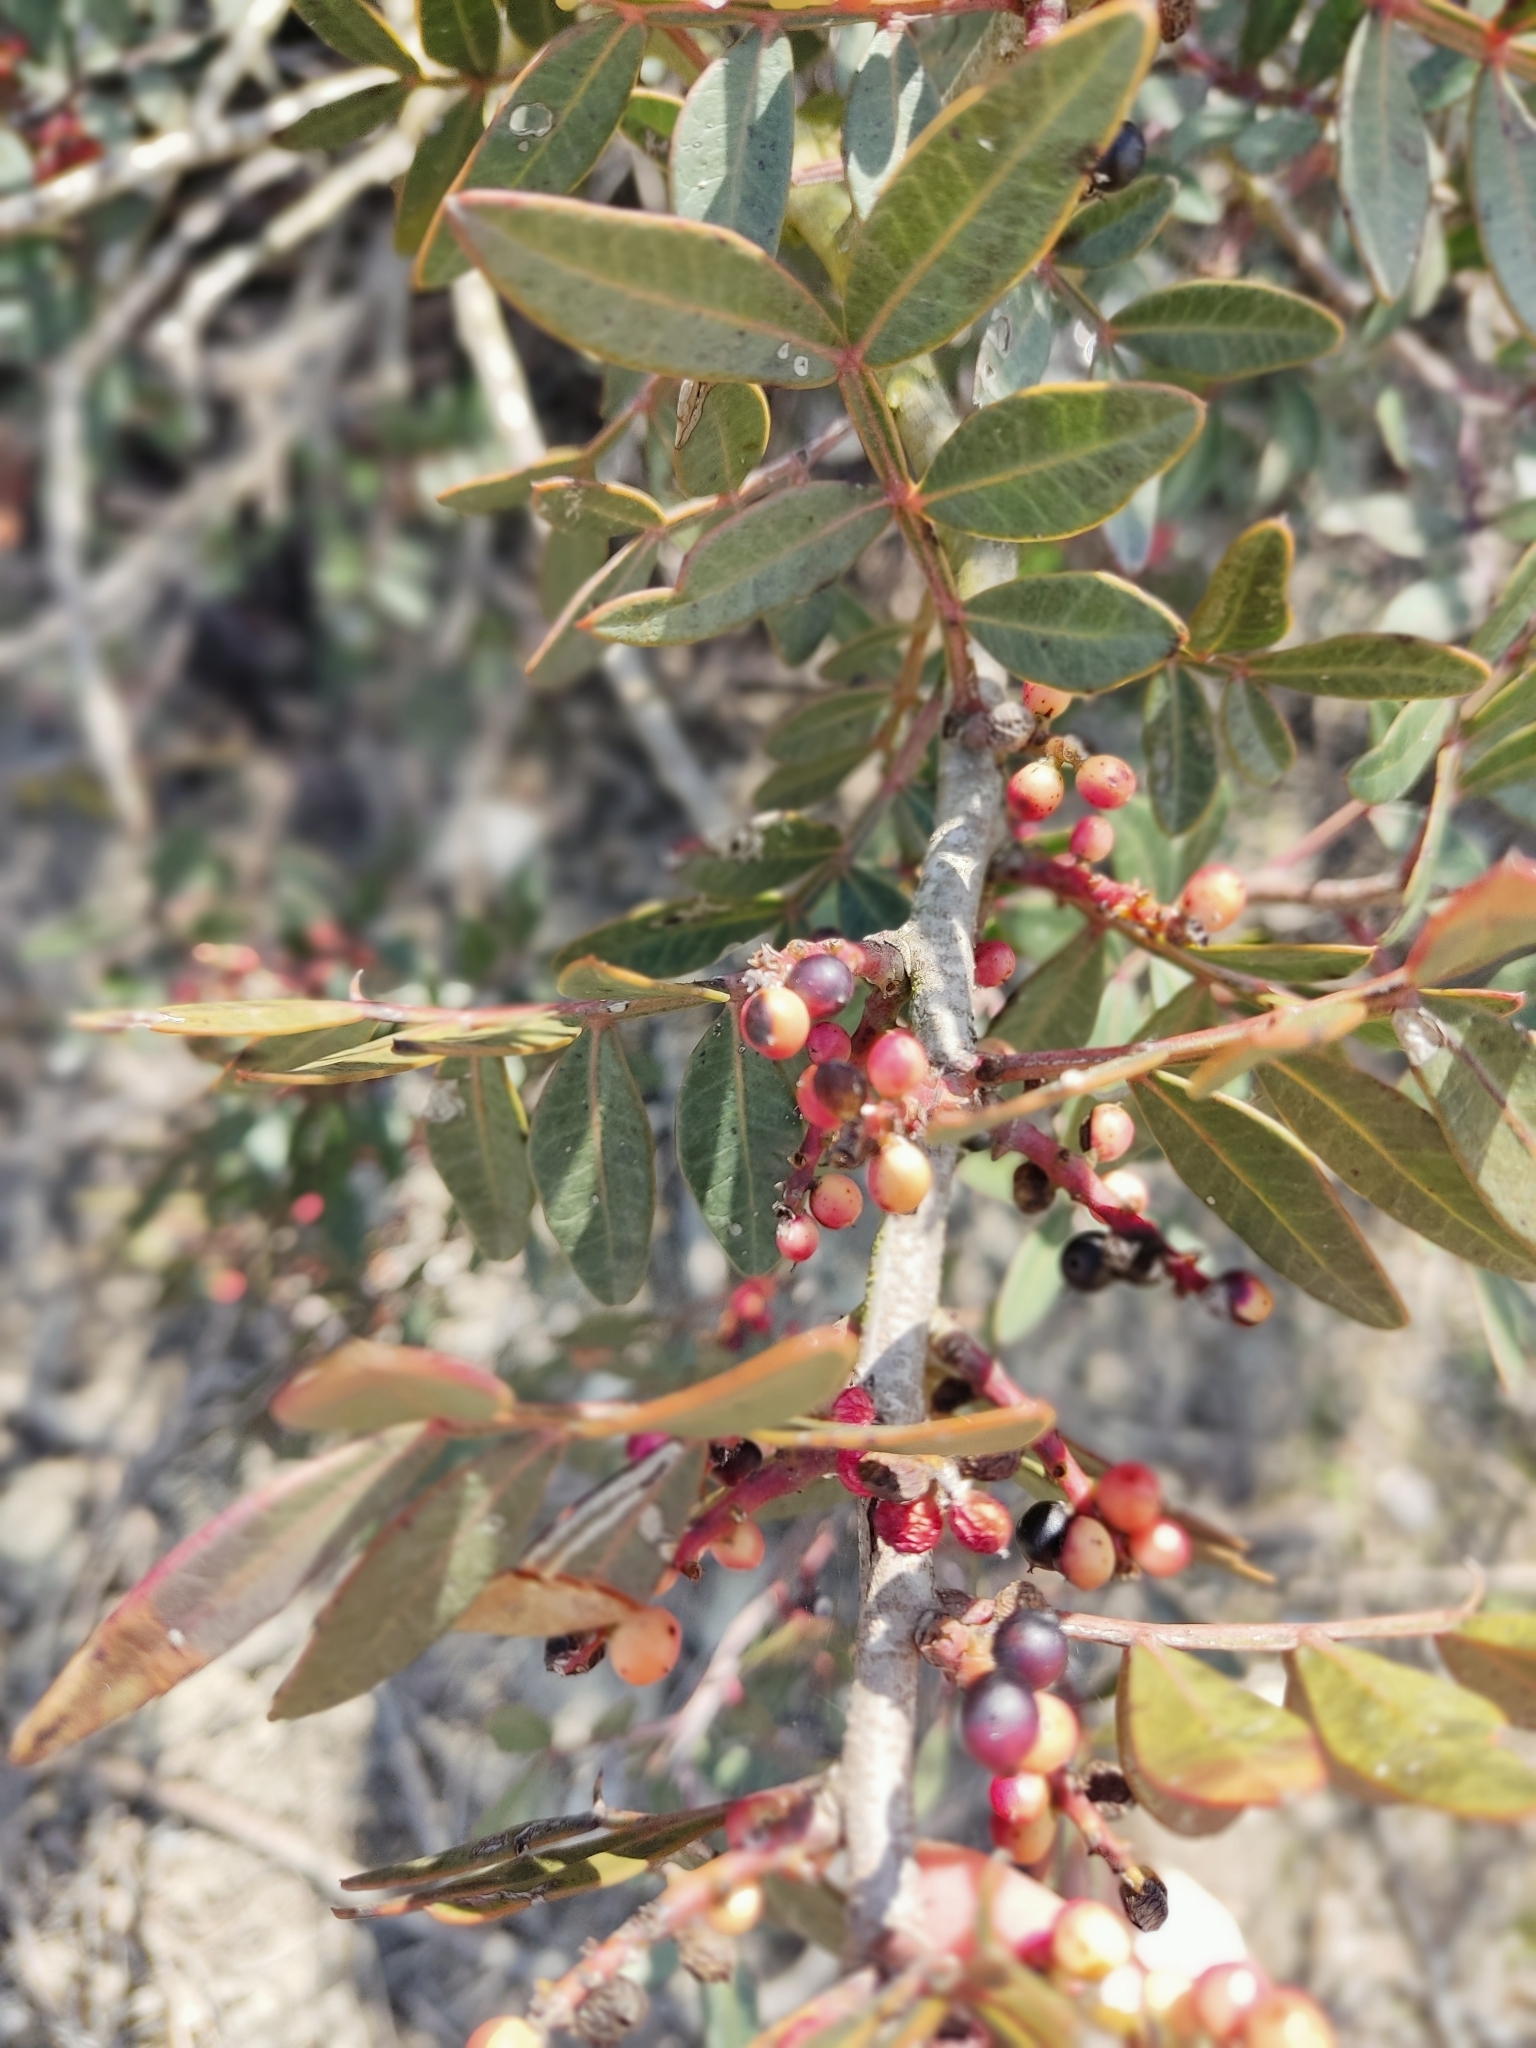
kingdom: Plantae
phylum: Tracheophyta
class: Magnoliopsida
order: Sapindales
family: Anacardiaceae
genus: Pistacia
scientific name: Pistacia lentiscus
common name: Lentisk
